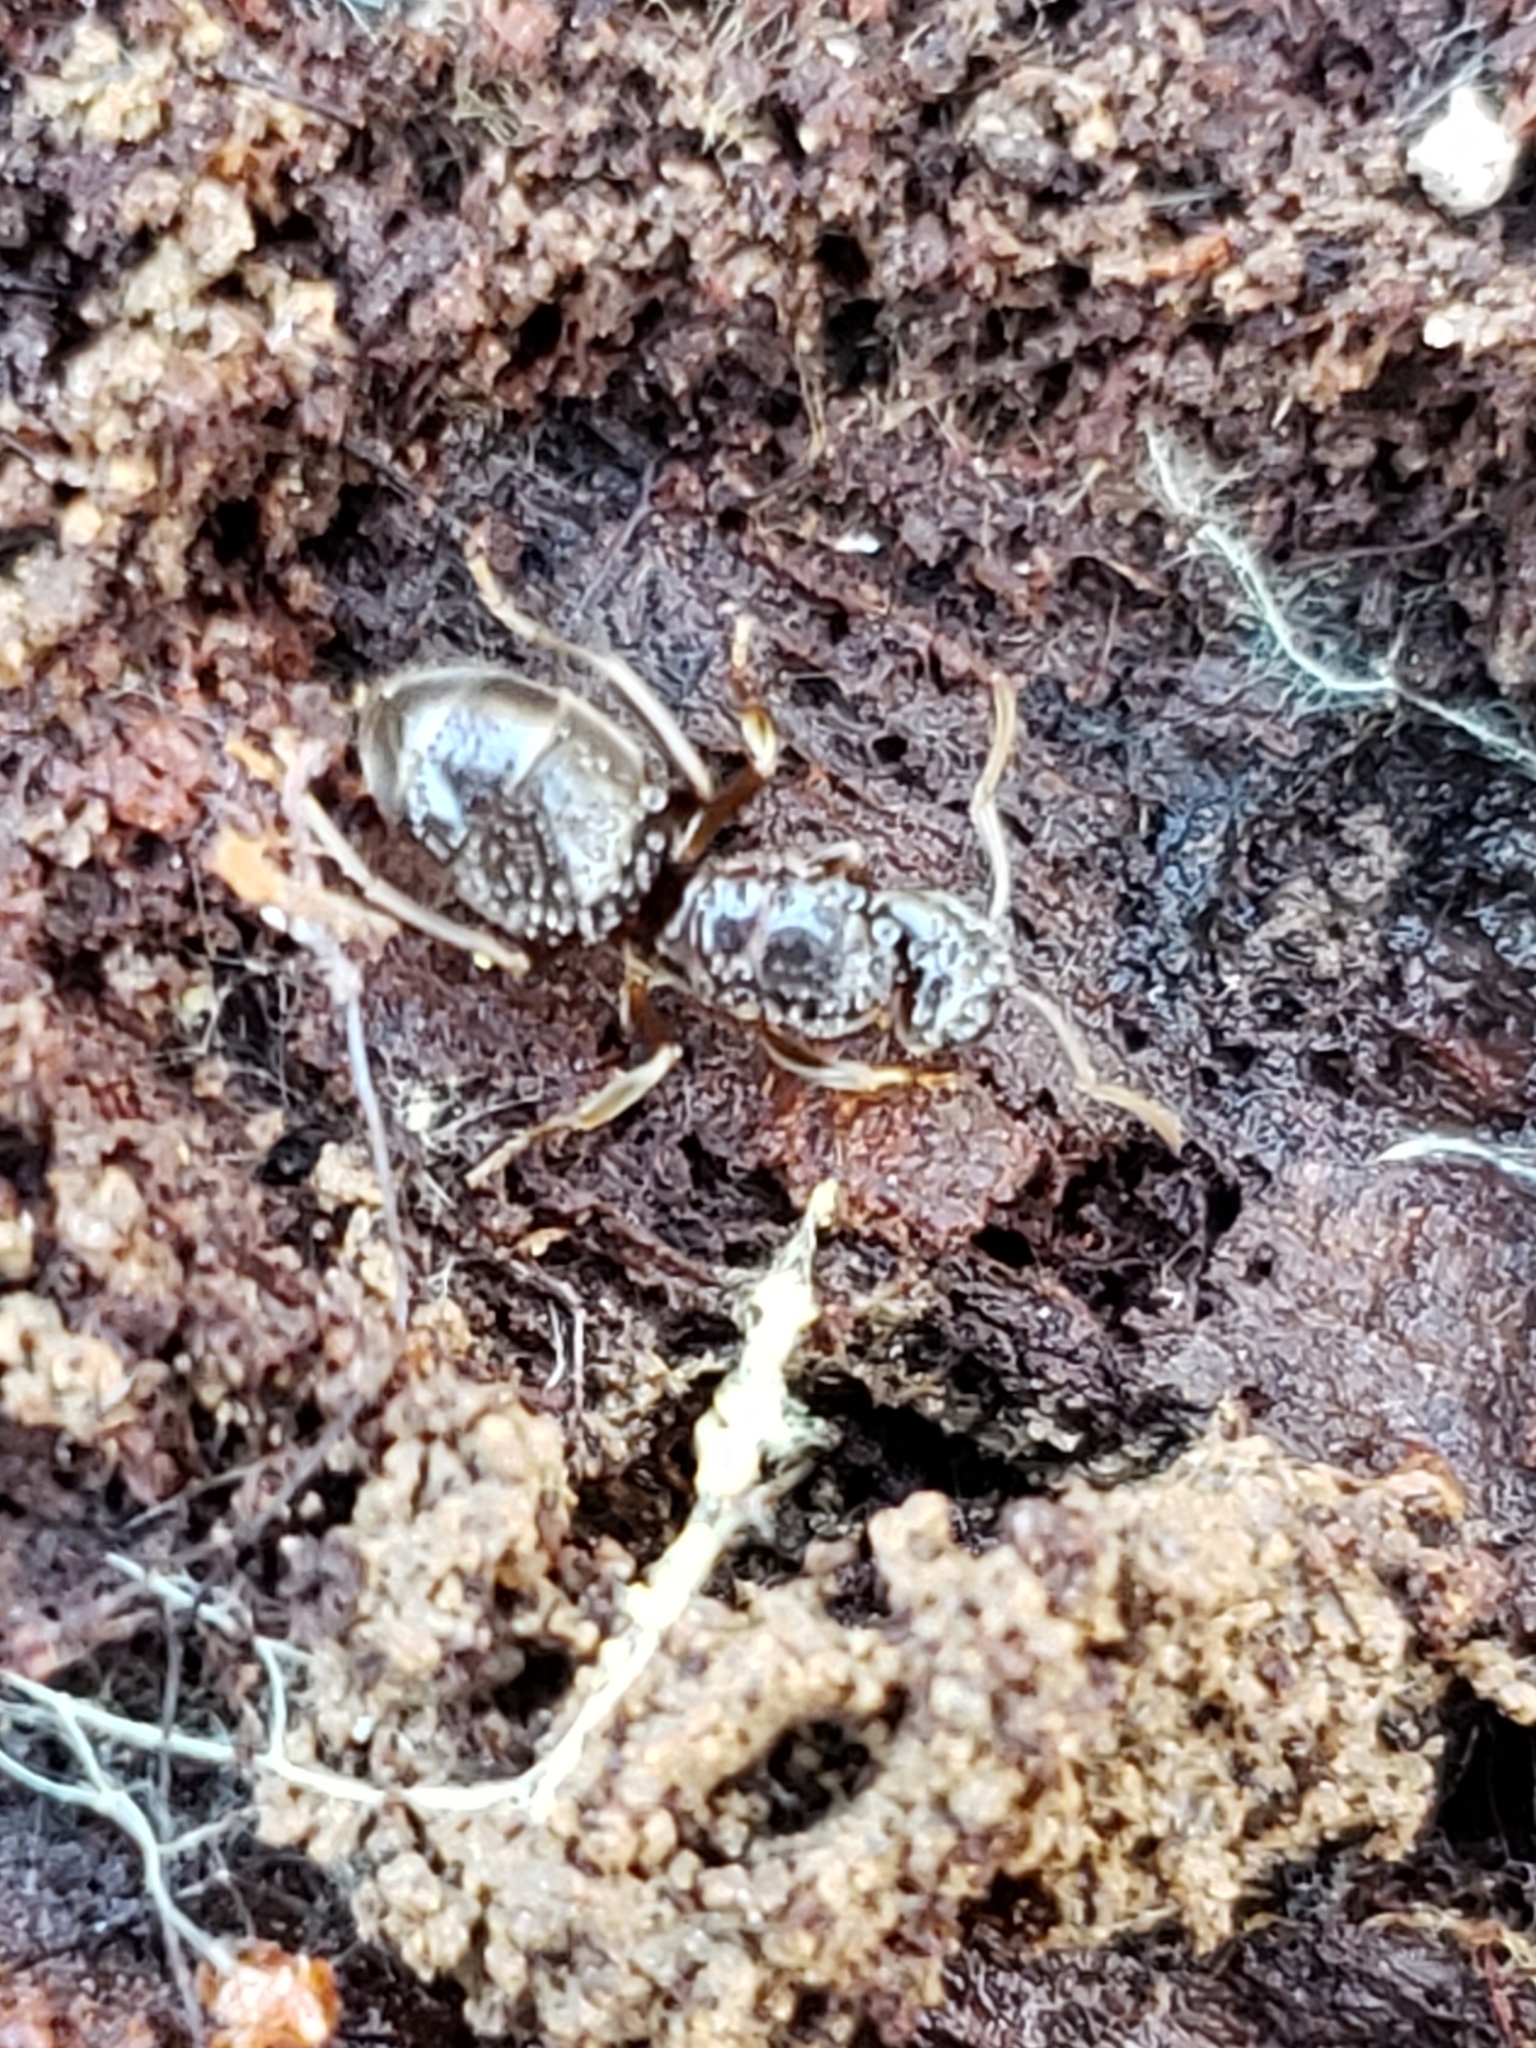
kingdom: Animalia
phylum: Arthropoda
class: Insecta
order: Hymenoptera
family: Formicidae
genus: Lasius
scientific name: Lasius aphidicola
